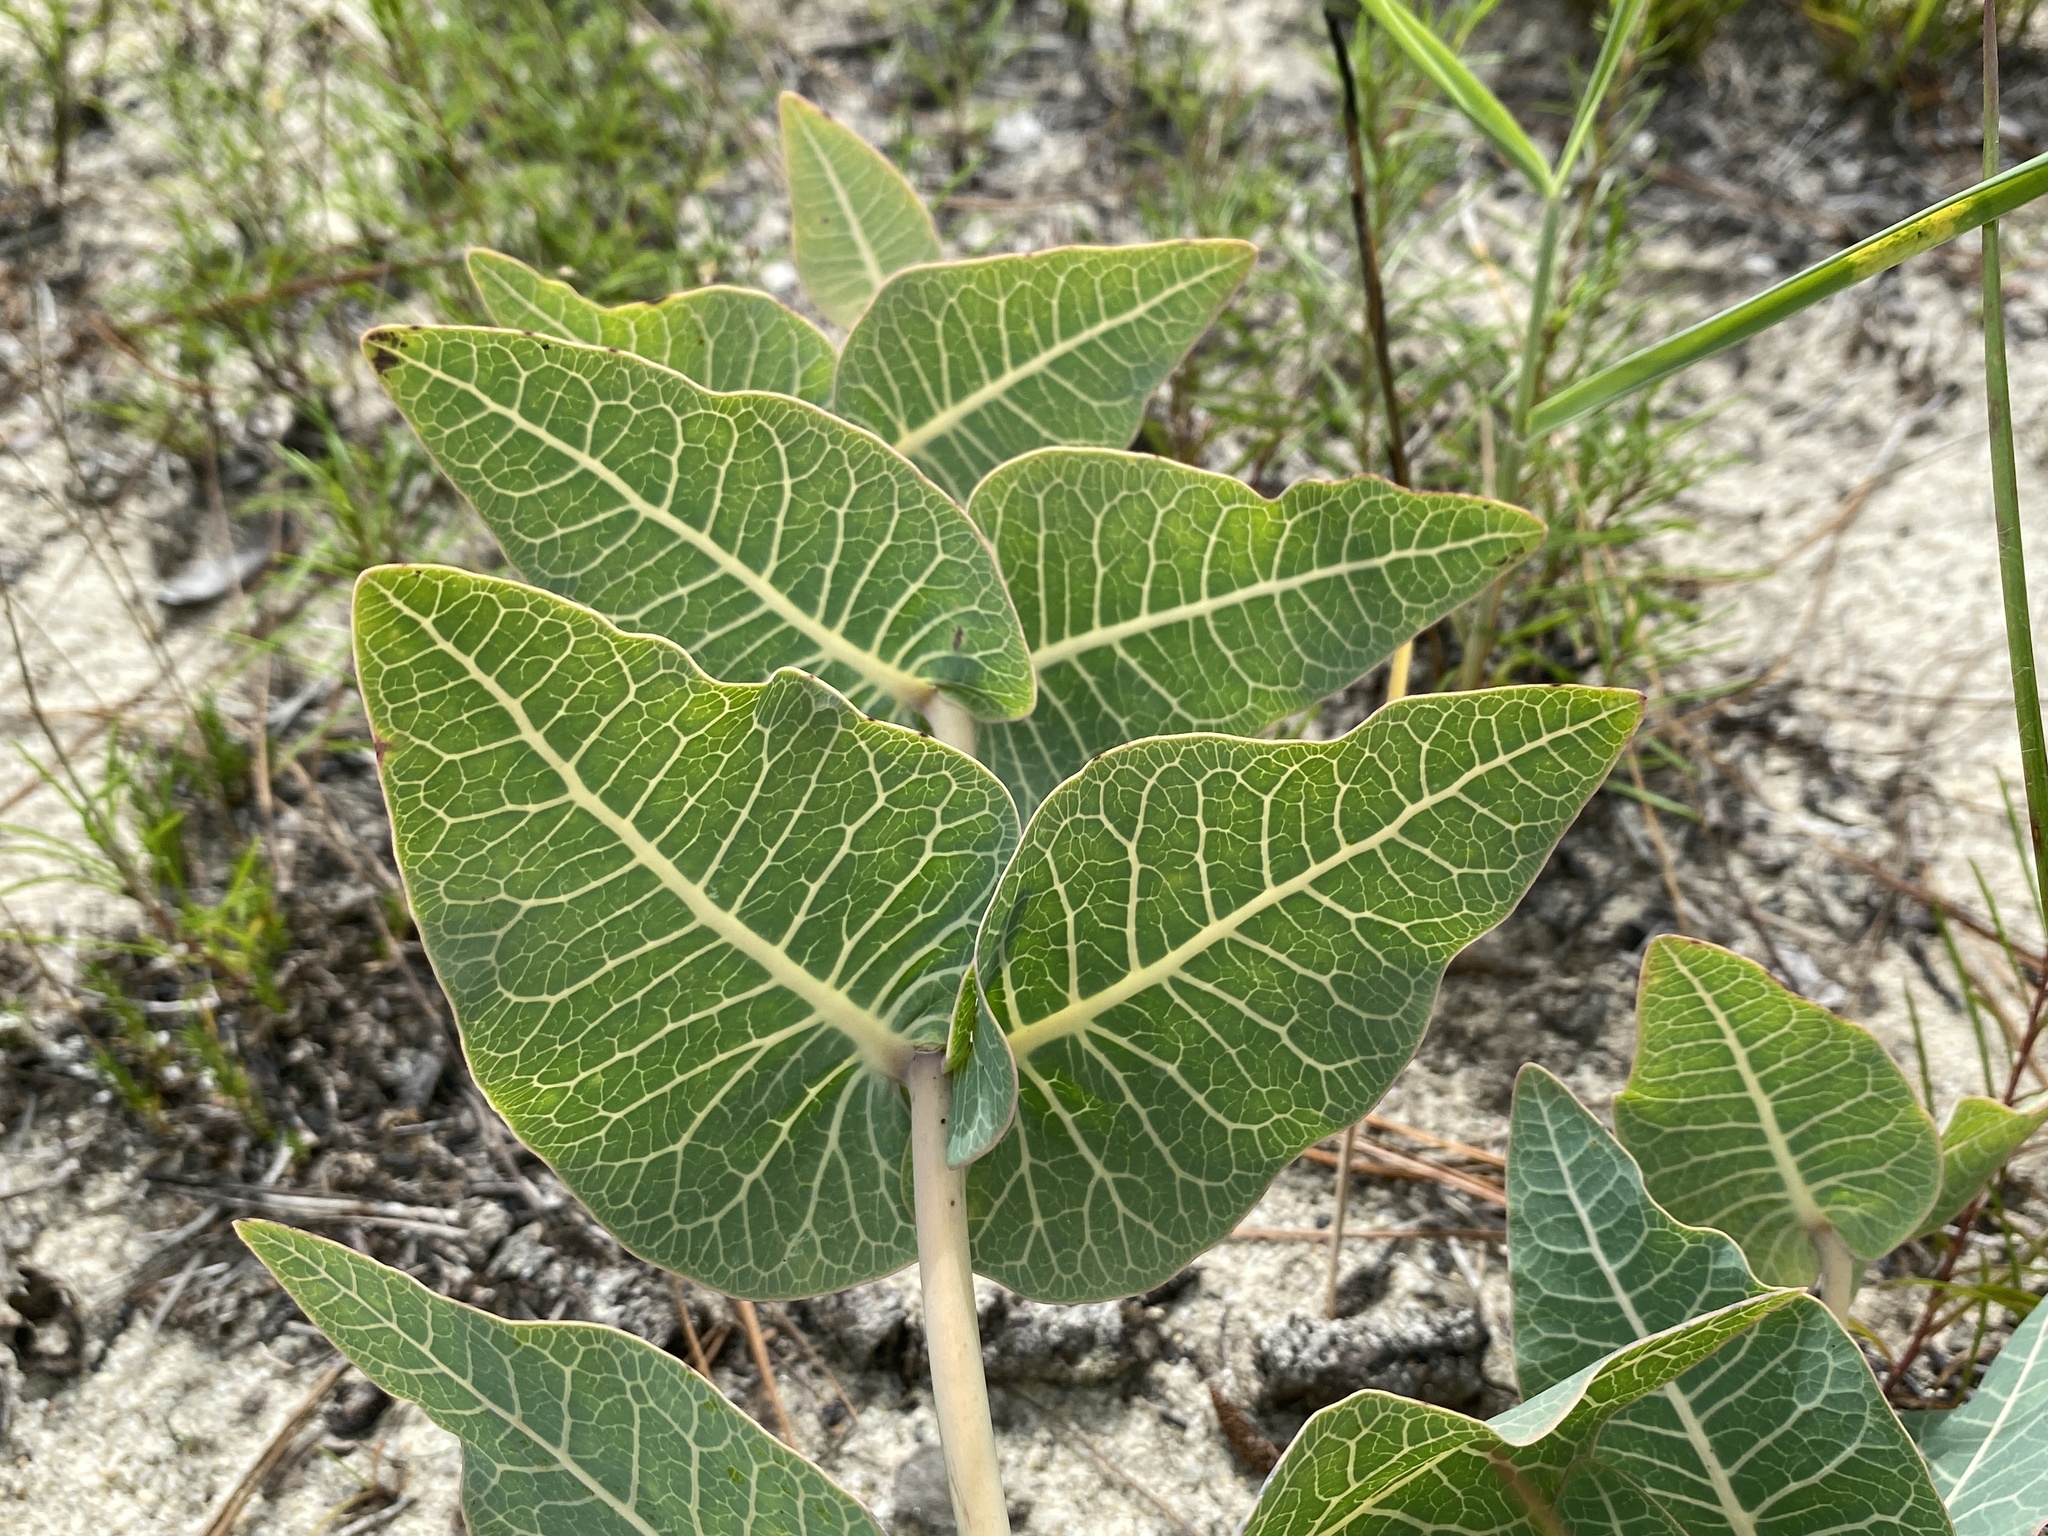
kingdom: Plantae
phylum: Tracheophyta
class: Magnoliopsida
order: Gentianales
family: Apocynaceae
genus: Asclepias
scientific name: Asclepias humistrata
